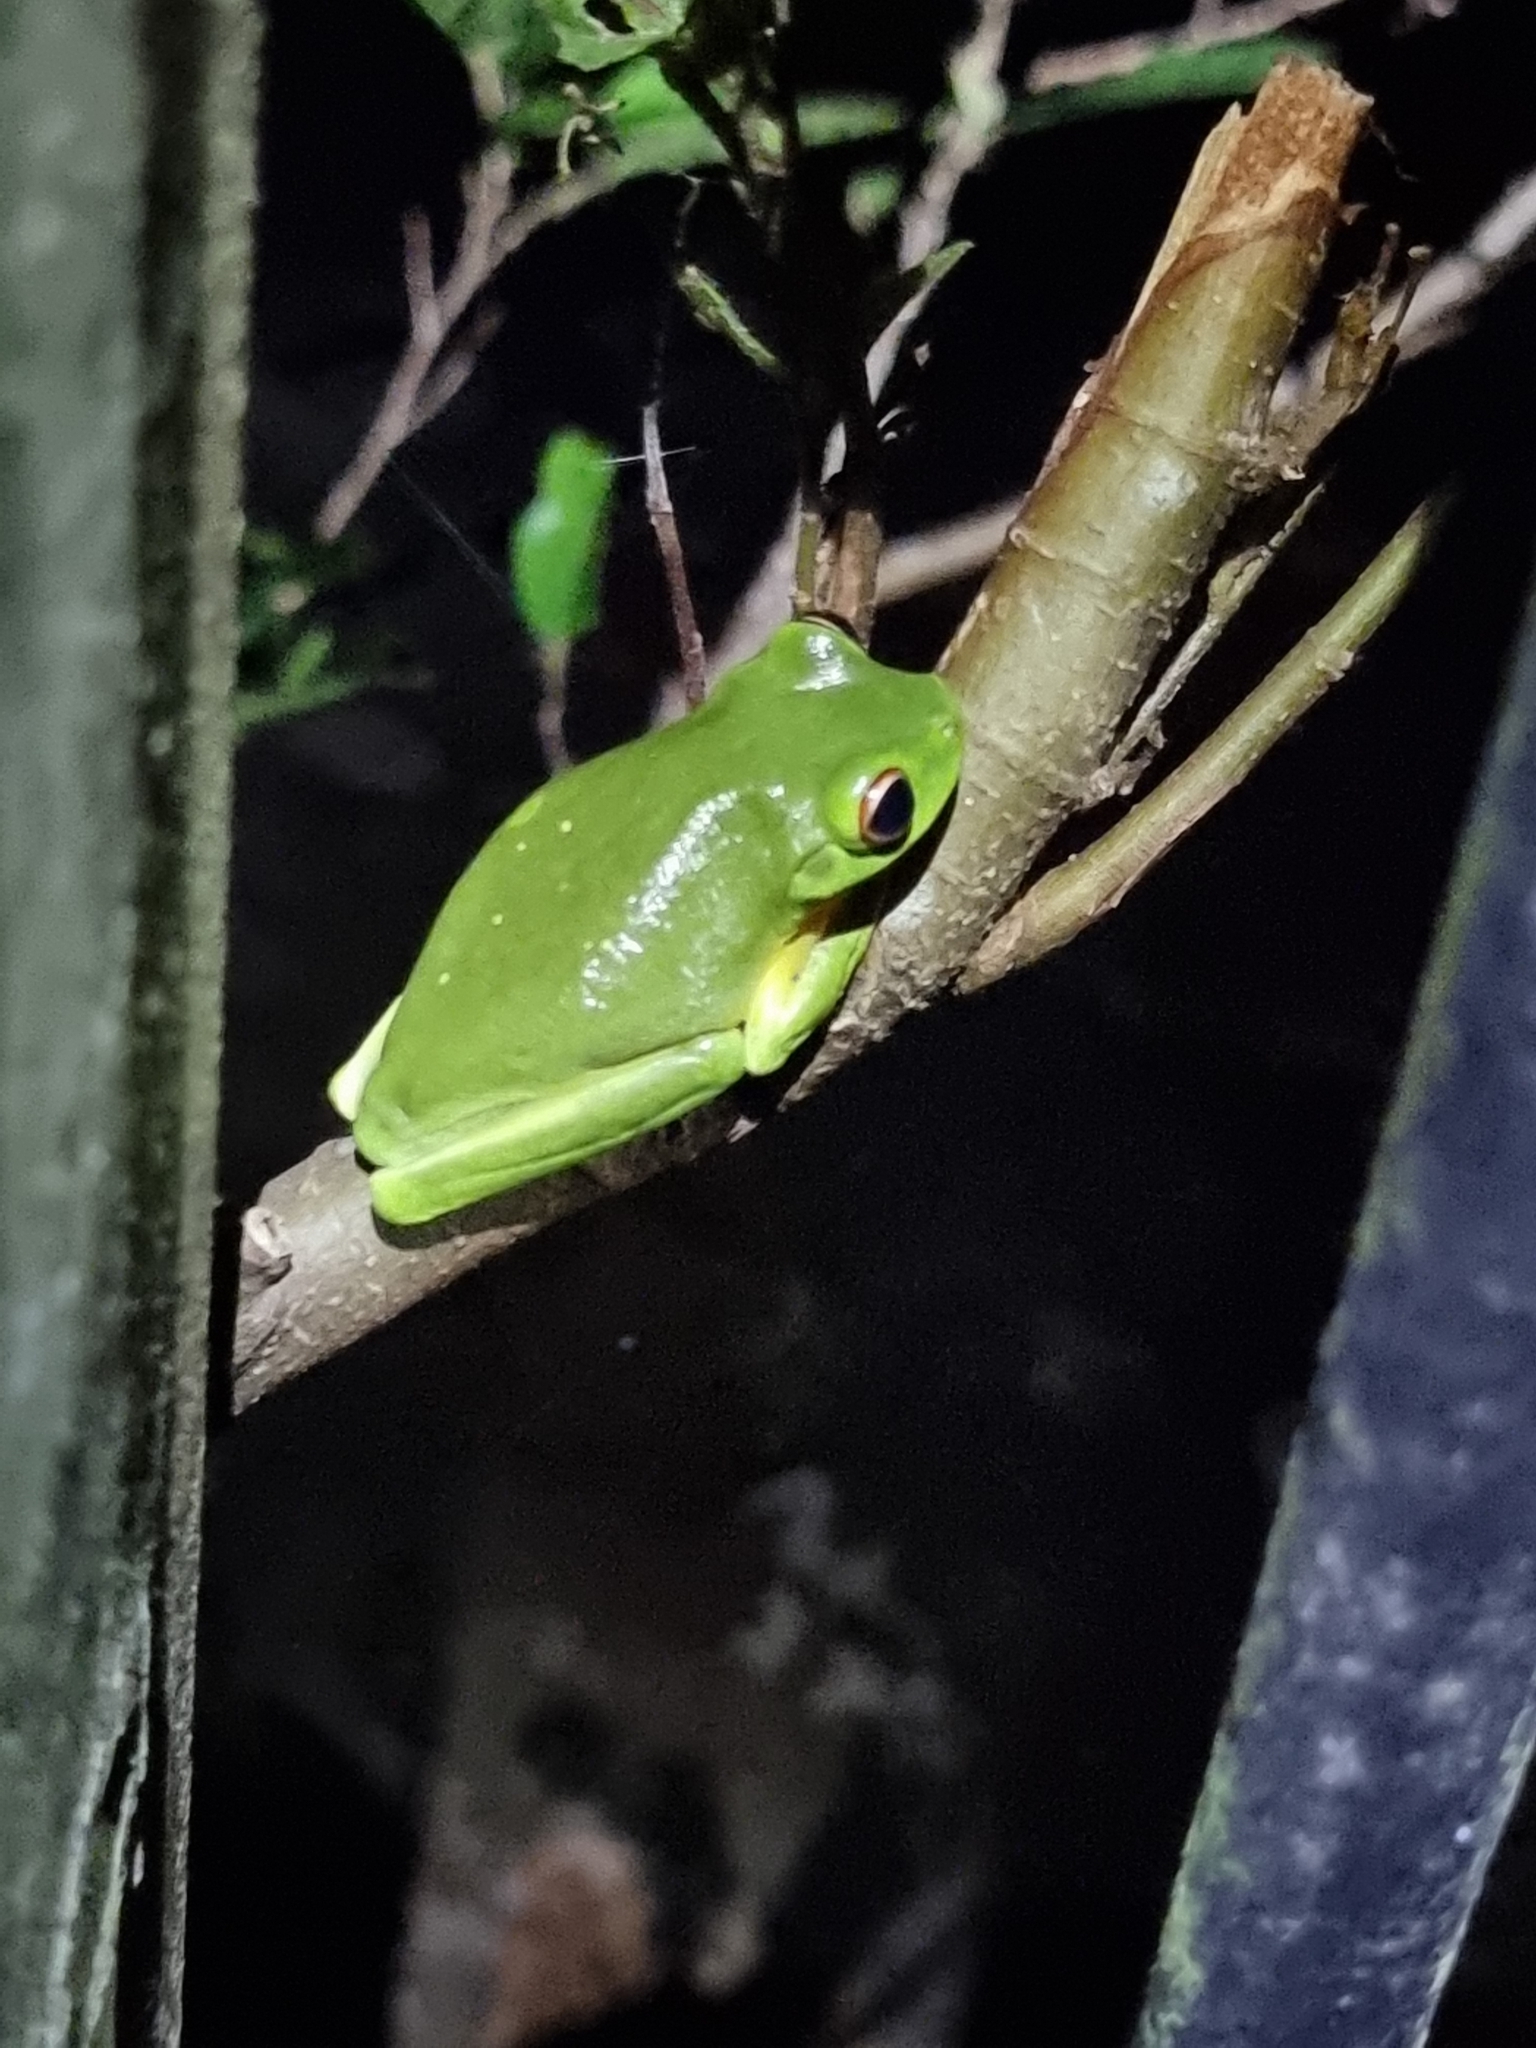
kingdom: Animalia
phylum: Chordata
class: Amphibia
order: Anura
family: Pelodryadidae
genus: Ranoidea
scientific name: Ranoidea chloris
